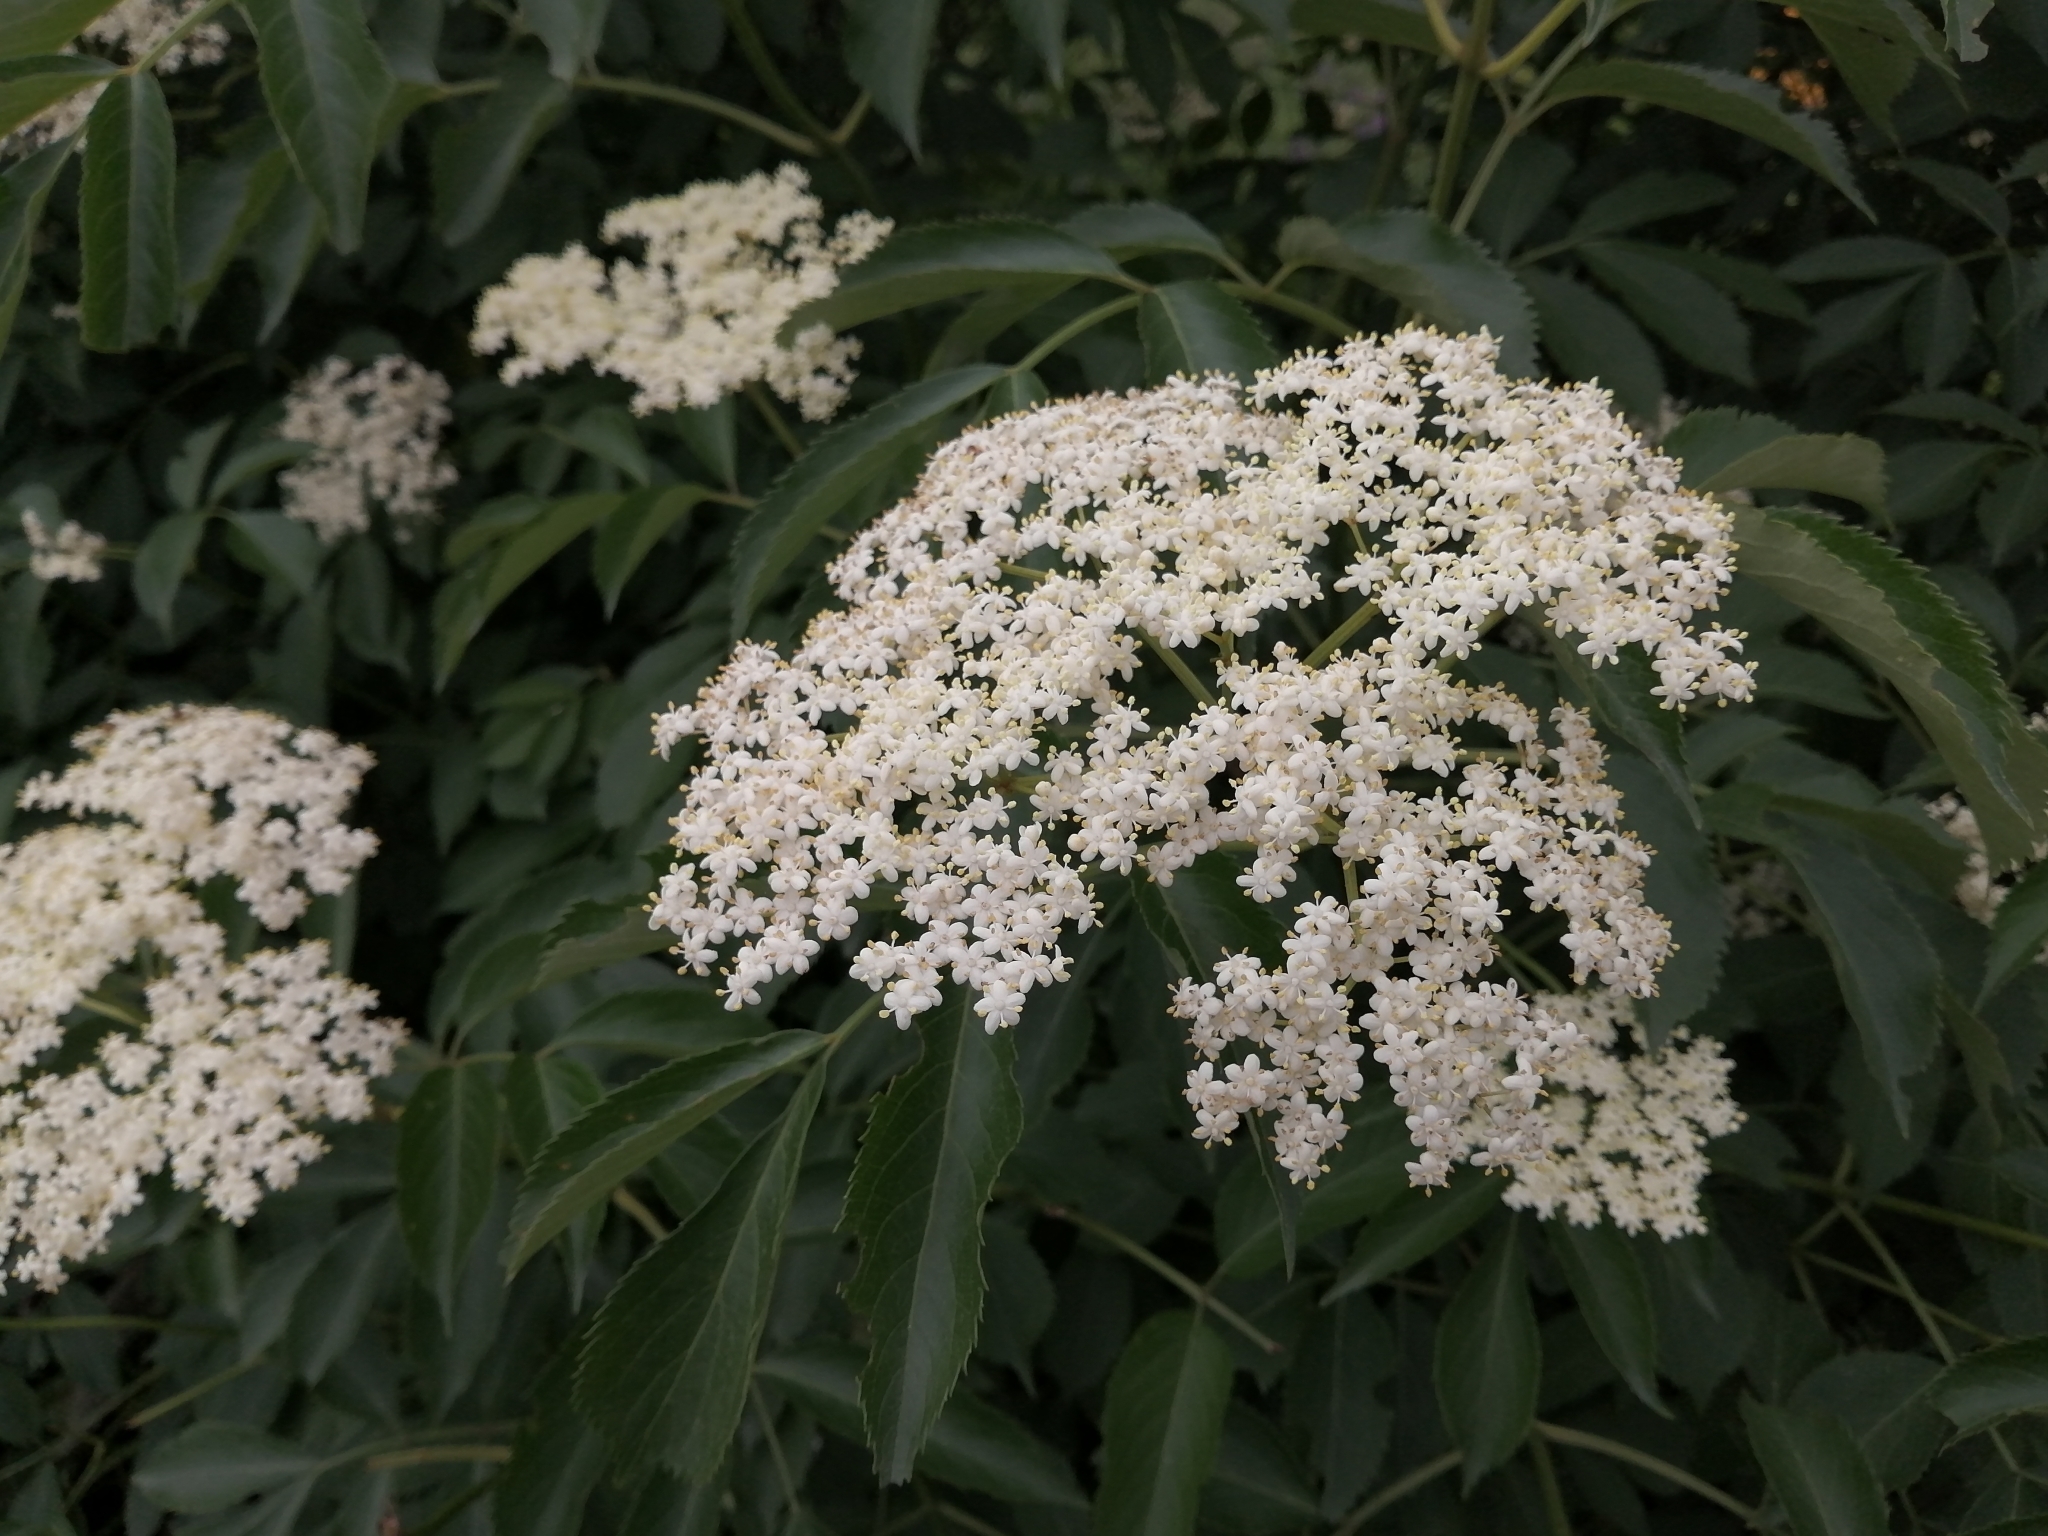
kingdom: Plantae
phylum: Tracheophyta
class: Magnoliopsida
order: Dipsacales
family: Viburnaceae
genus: Sambucus
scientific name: Sambucus canadensis
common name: American elder
